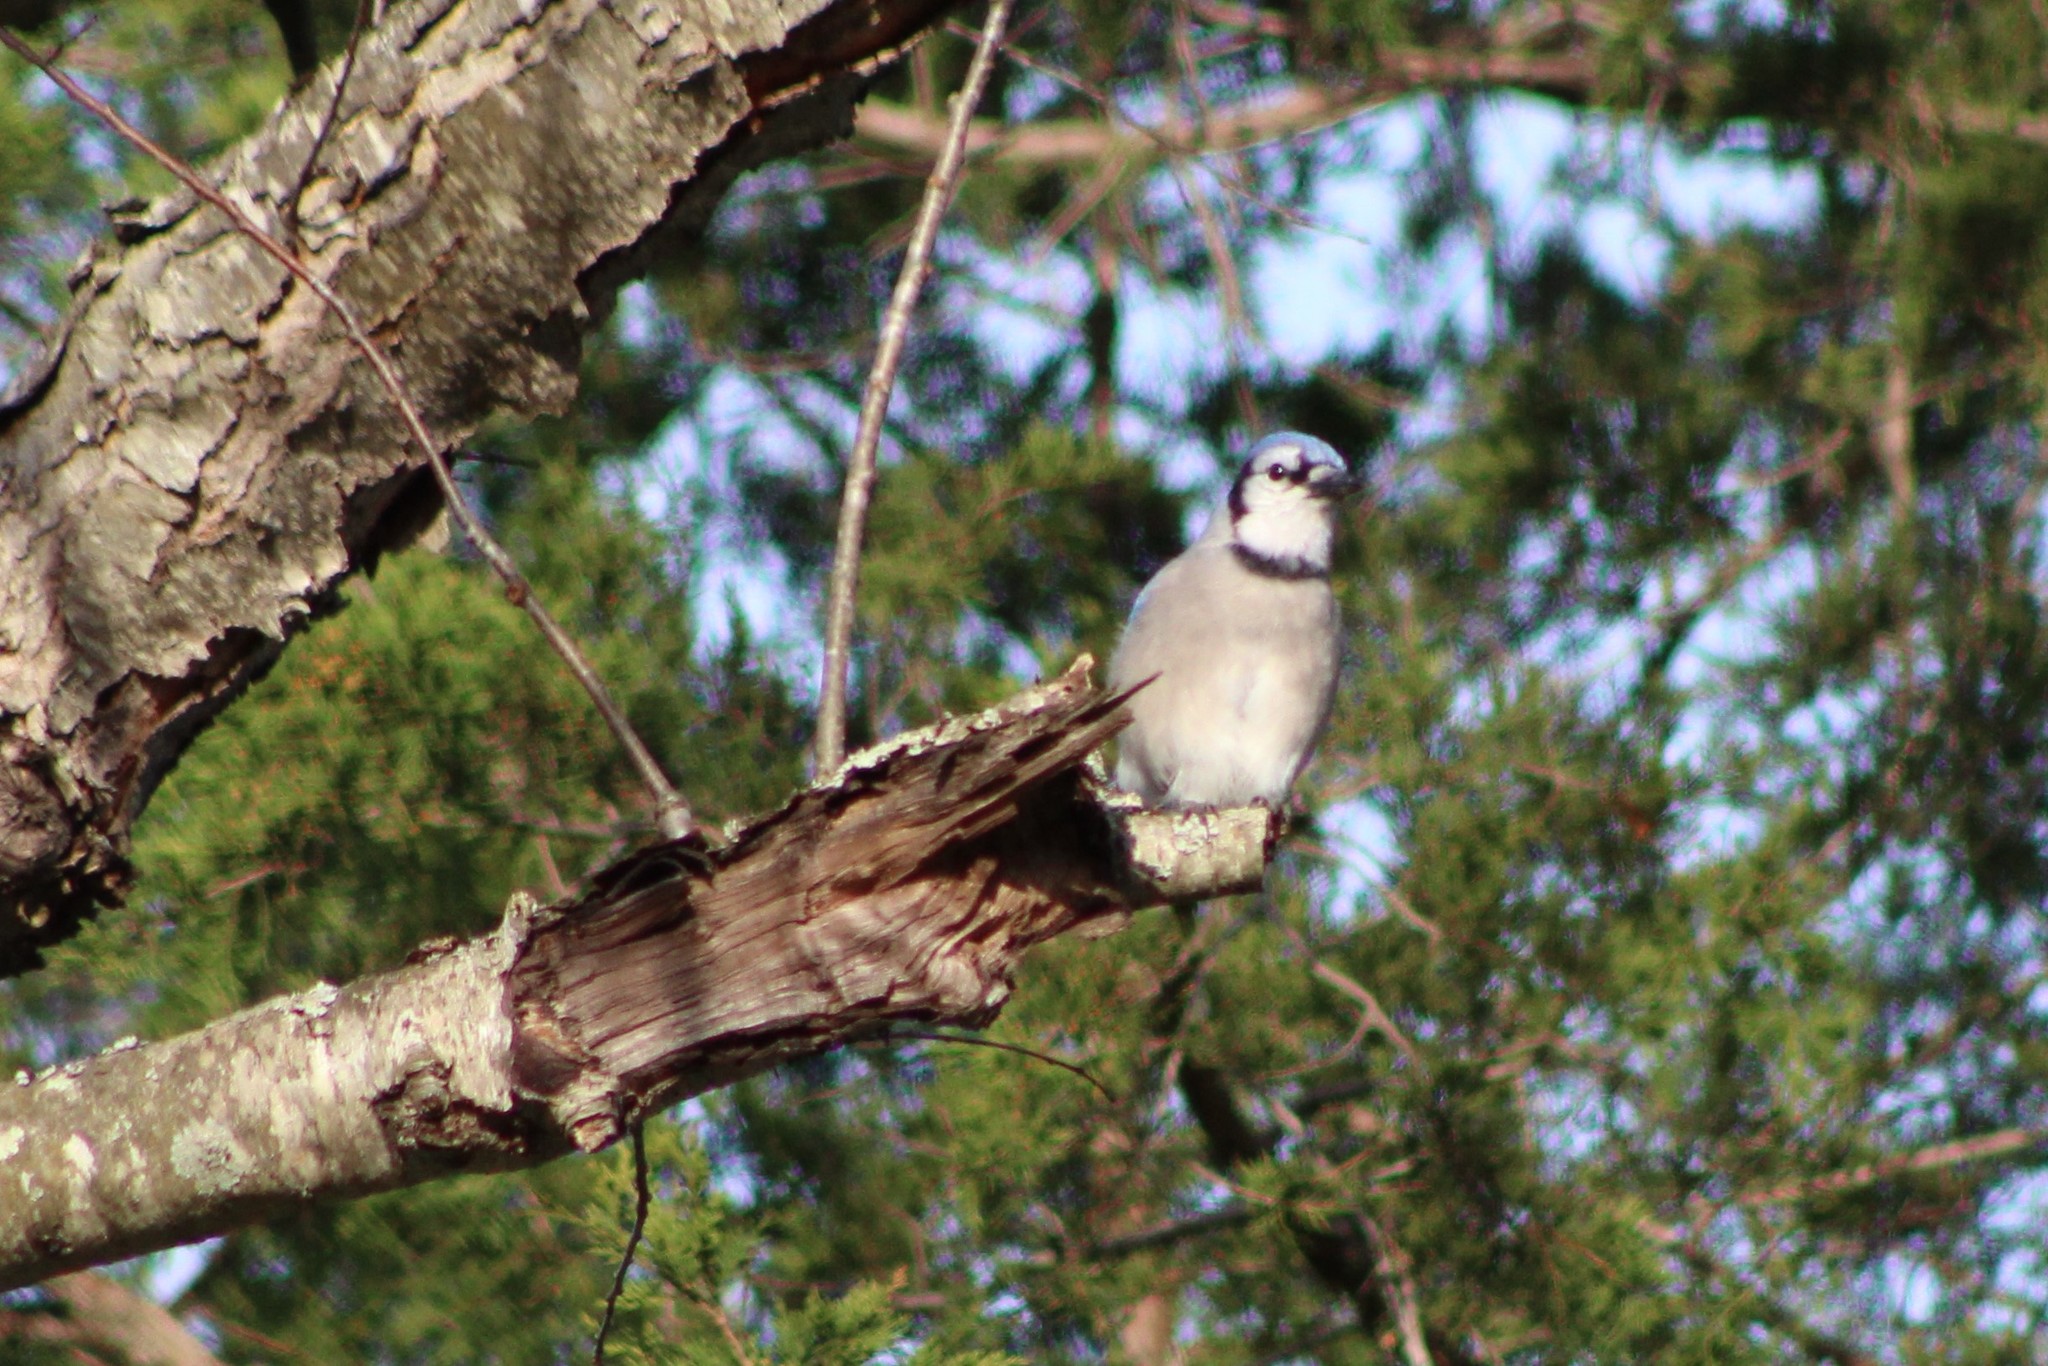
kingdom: Animalia
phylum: Chordata
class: Aves
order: Passeriformes
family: Corvidae
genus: Cyanocitta
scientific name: Cyanocitta cristata
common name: Blue jay
